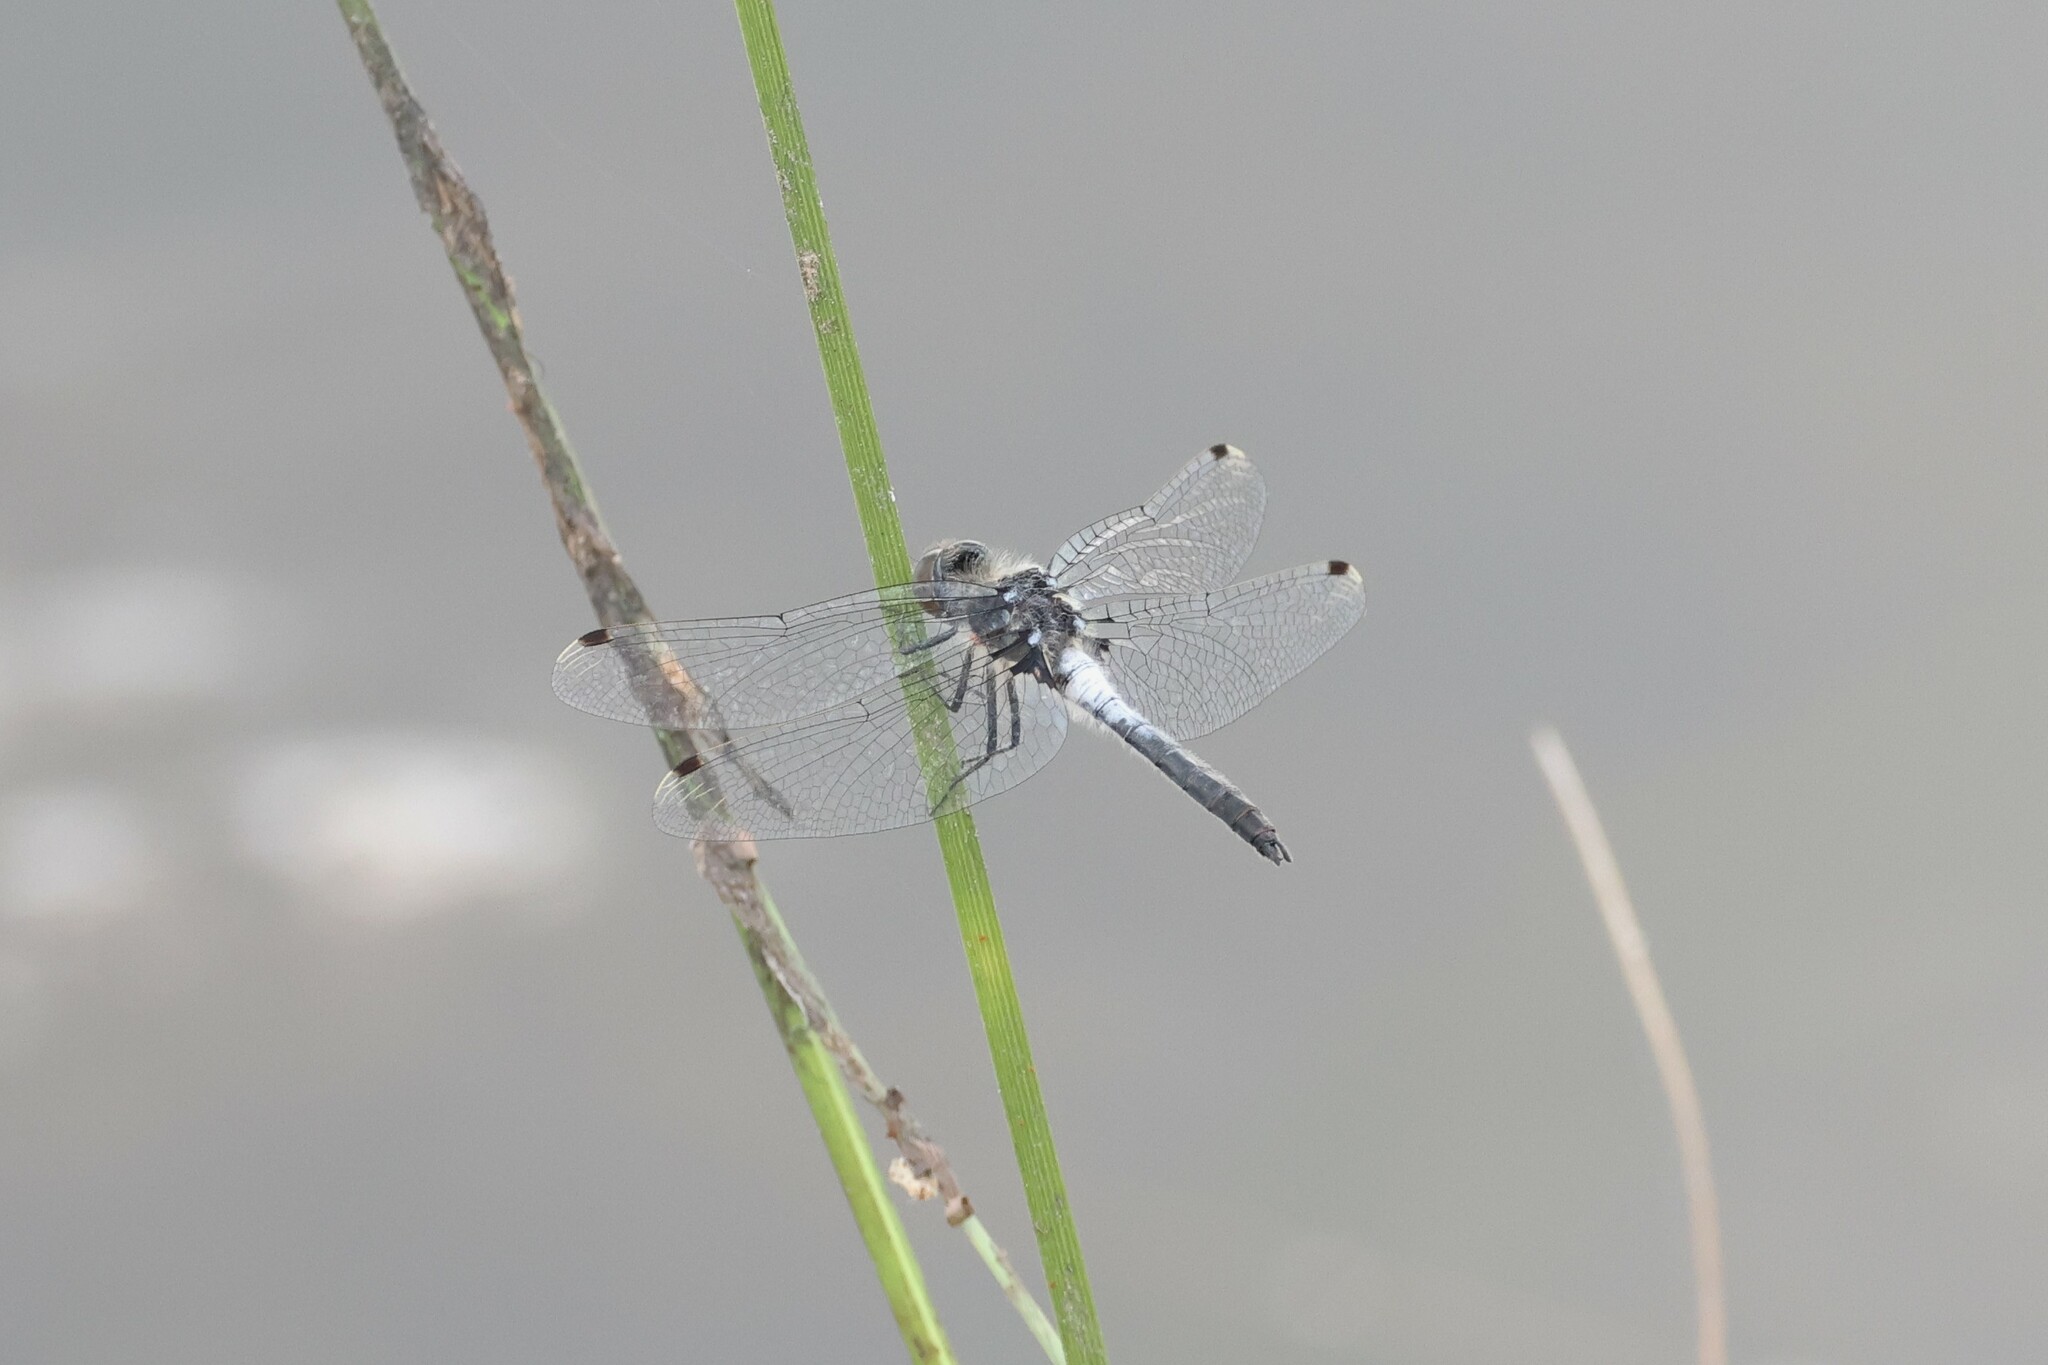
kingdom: Animalia
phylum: Arthropoda
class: Insecta
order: Odonata
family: Libellulidae
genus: Leucorrhinia
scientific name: Leucorrhinia frigida
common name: Frosted whiteface
